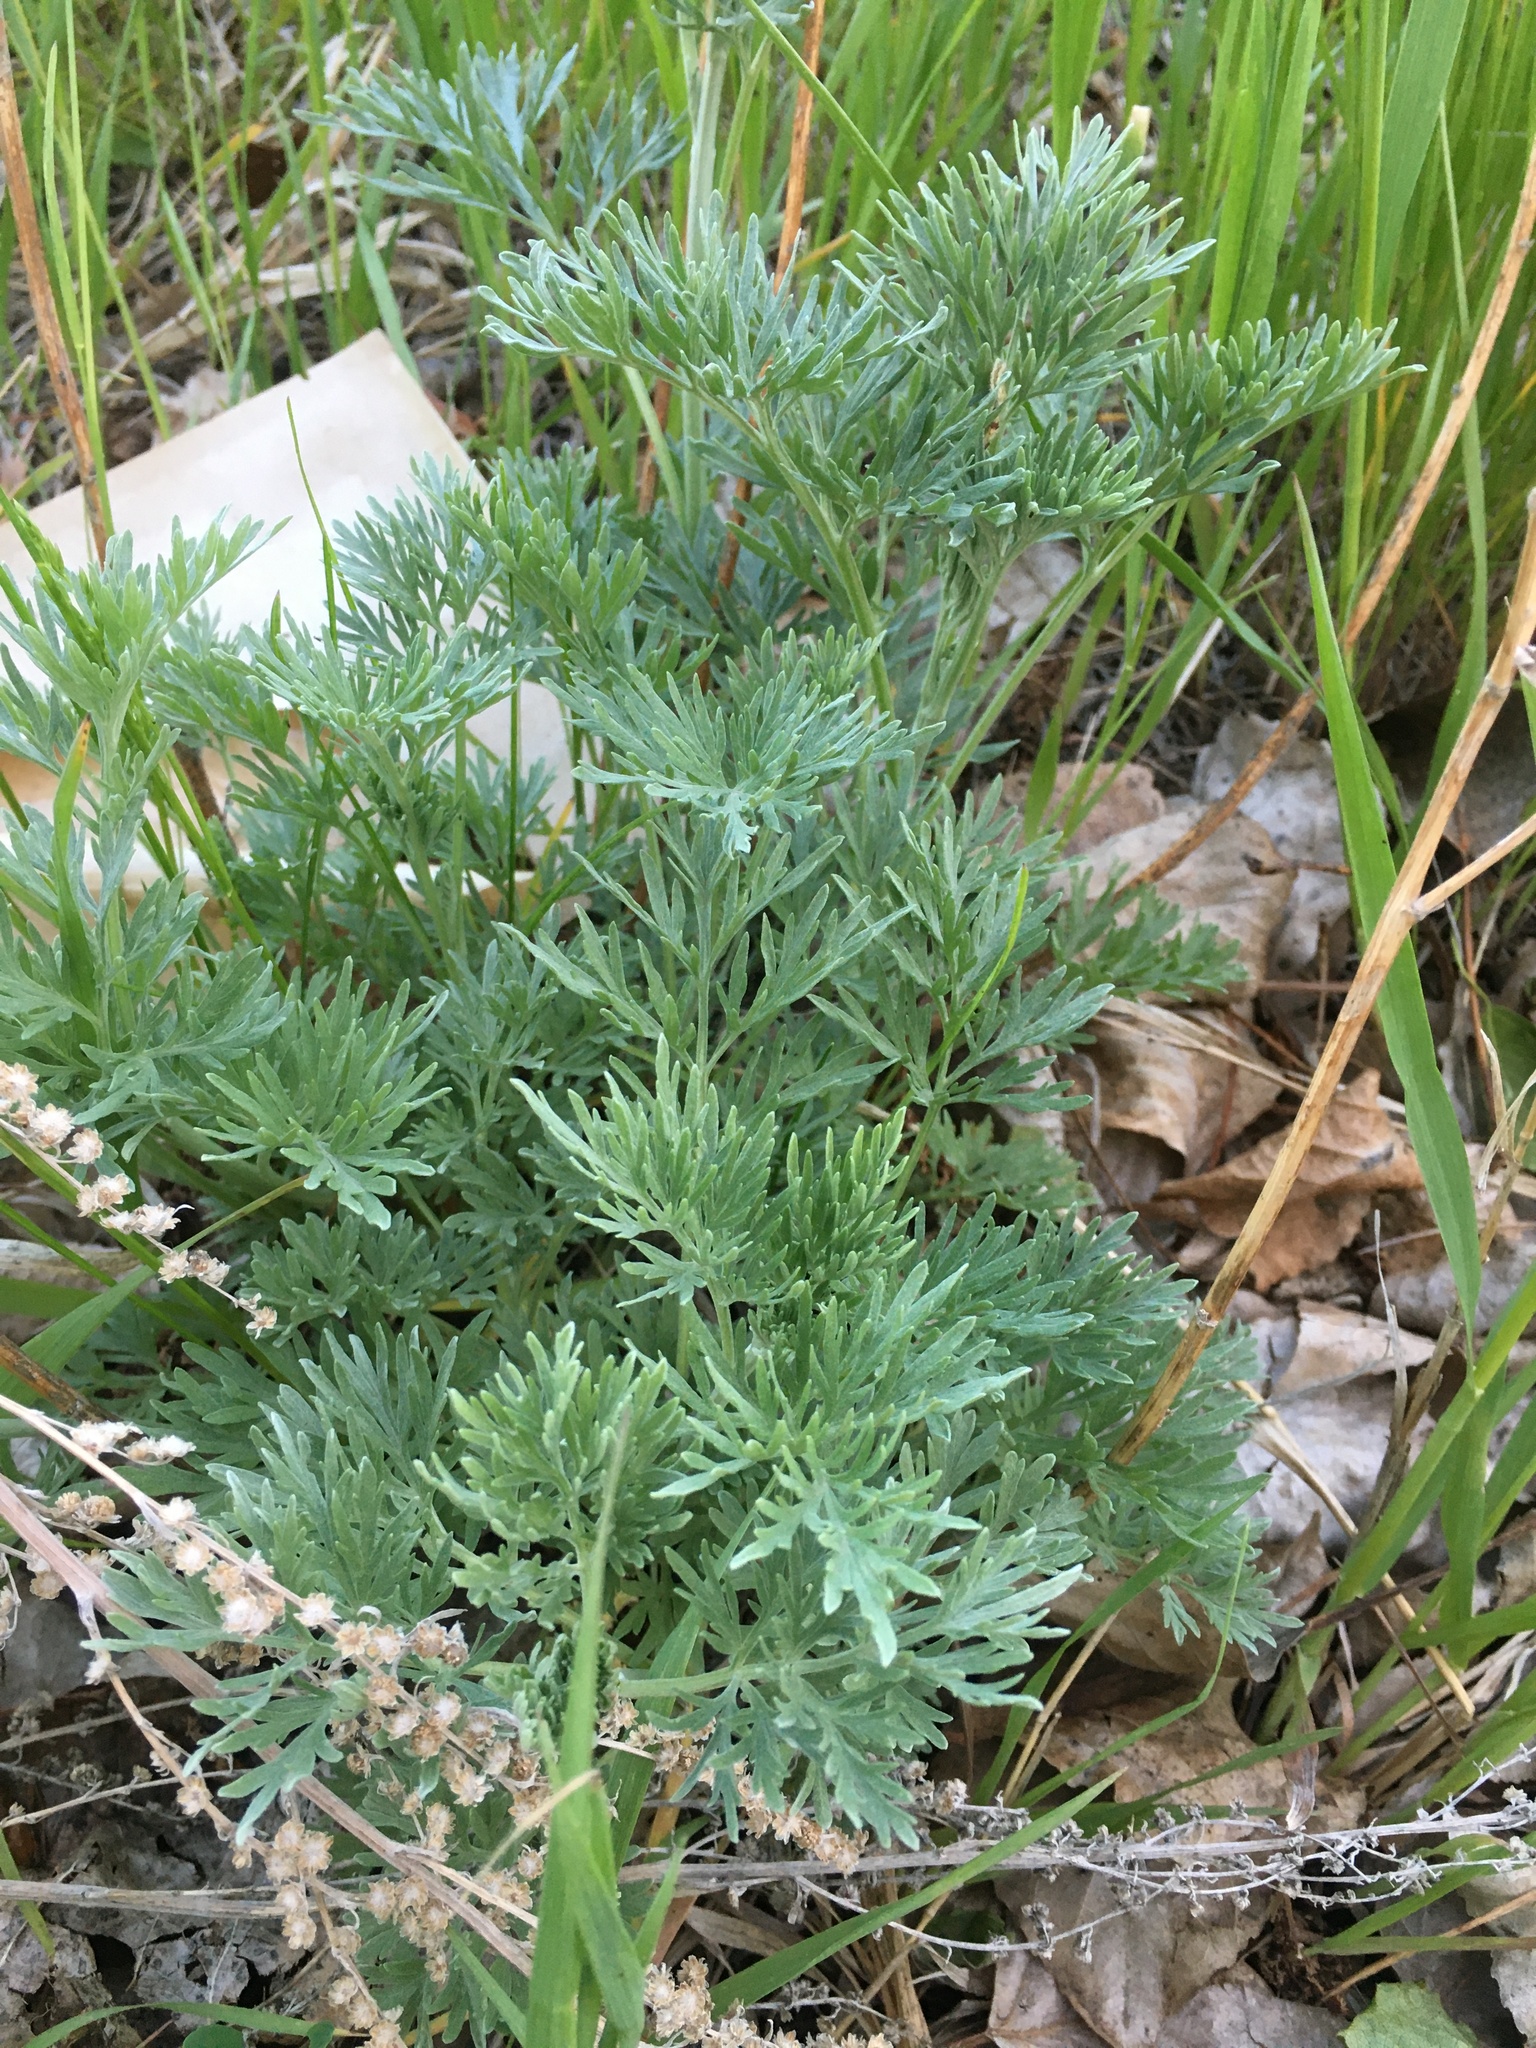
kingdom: Plantae
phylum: Tracheophyta
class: Magnoliopsida
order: Asterales
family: Asteraceae
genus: Artemisia
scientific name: Artemisia absinthium
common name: Wormwood
